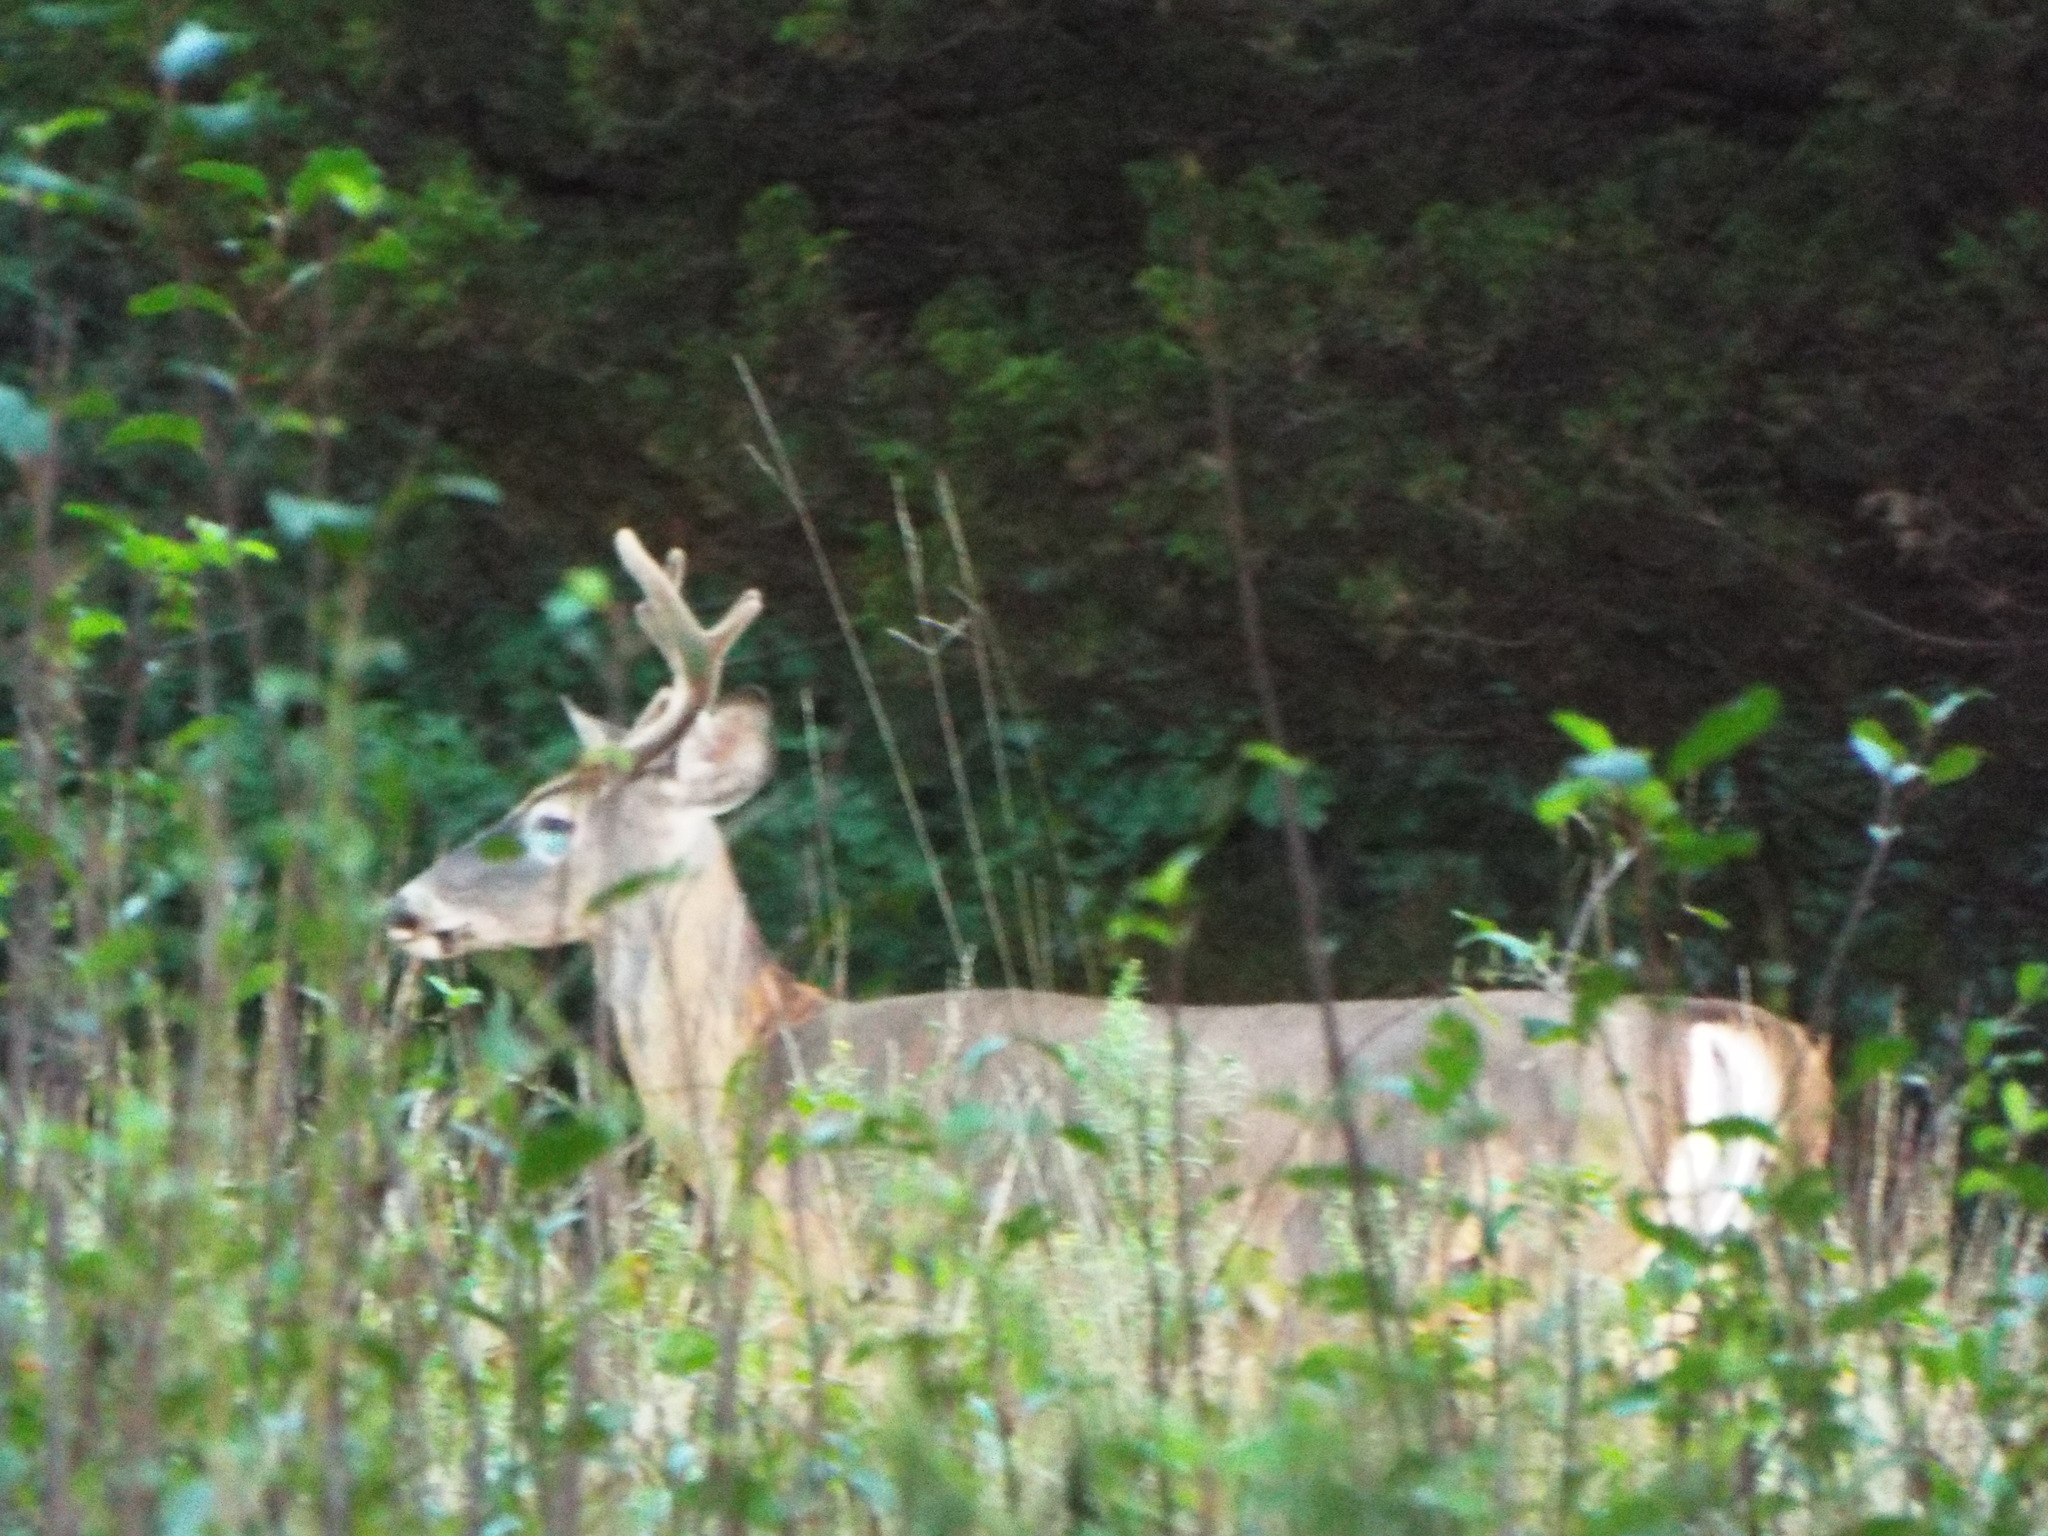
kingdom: Animalia
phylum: Chordata
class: Mammalia
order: Artiodactyla
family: Cervidae
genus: Odocoileus
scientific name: Odocoileus virginianus
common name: White-tailed deer
